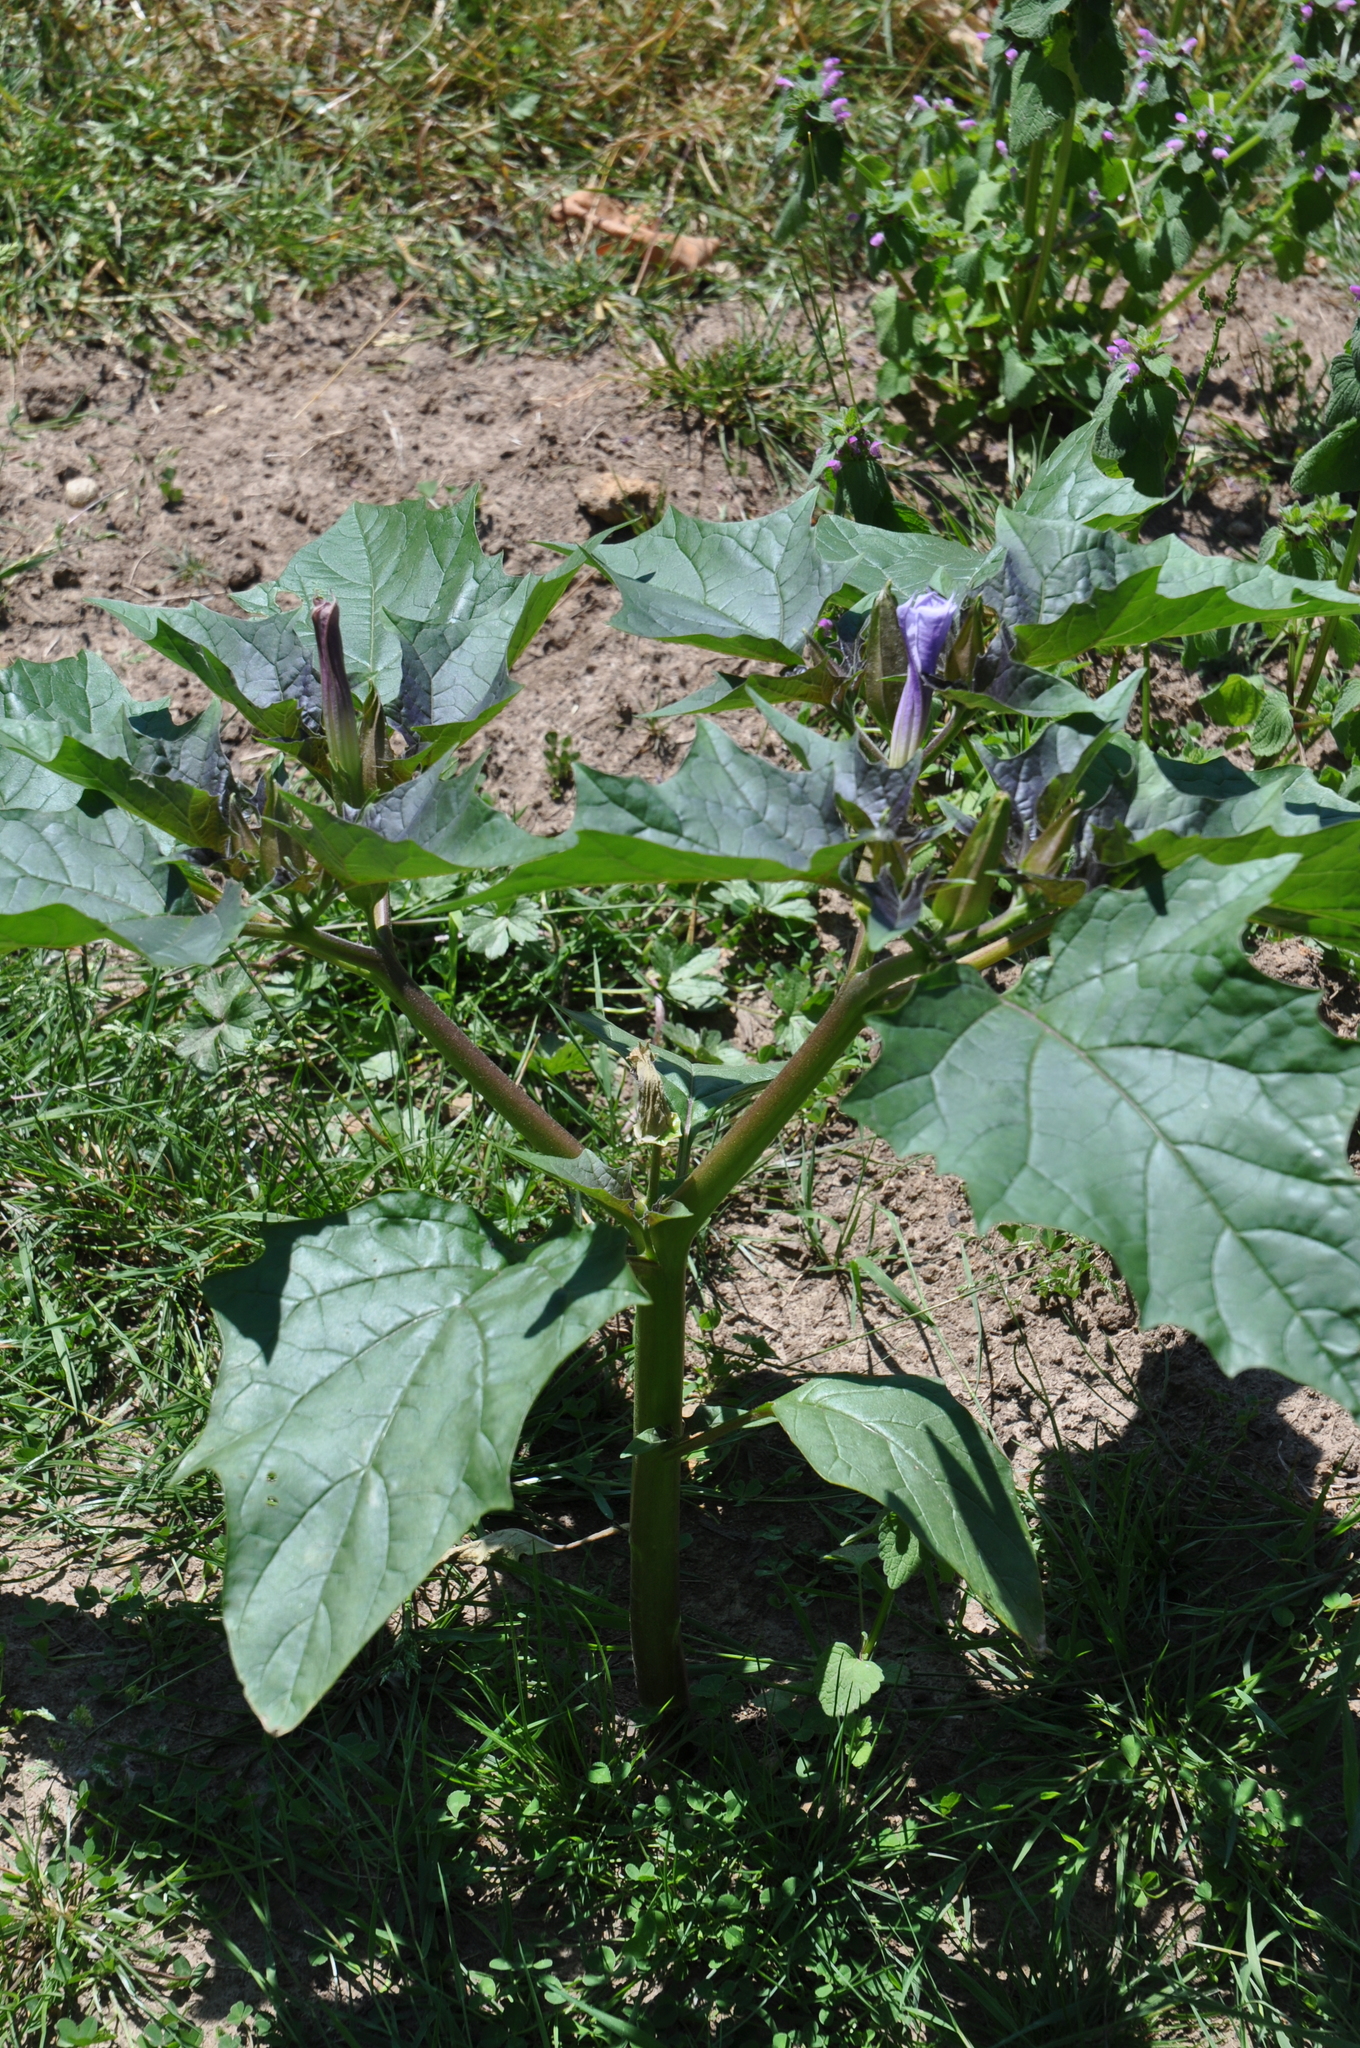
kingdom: Plantae
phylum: Tracheophyta
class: Magnoliopsida
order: Solanales
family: Solanaceae
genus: Datura
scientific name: Datura stramonium
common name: Thorn-apple
